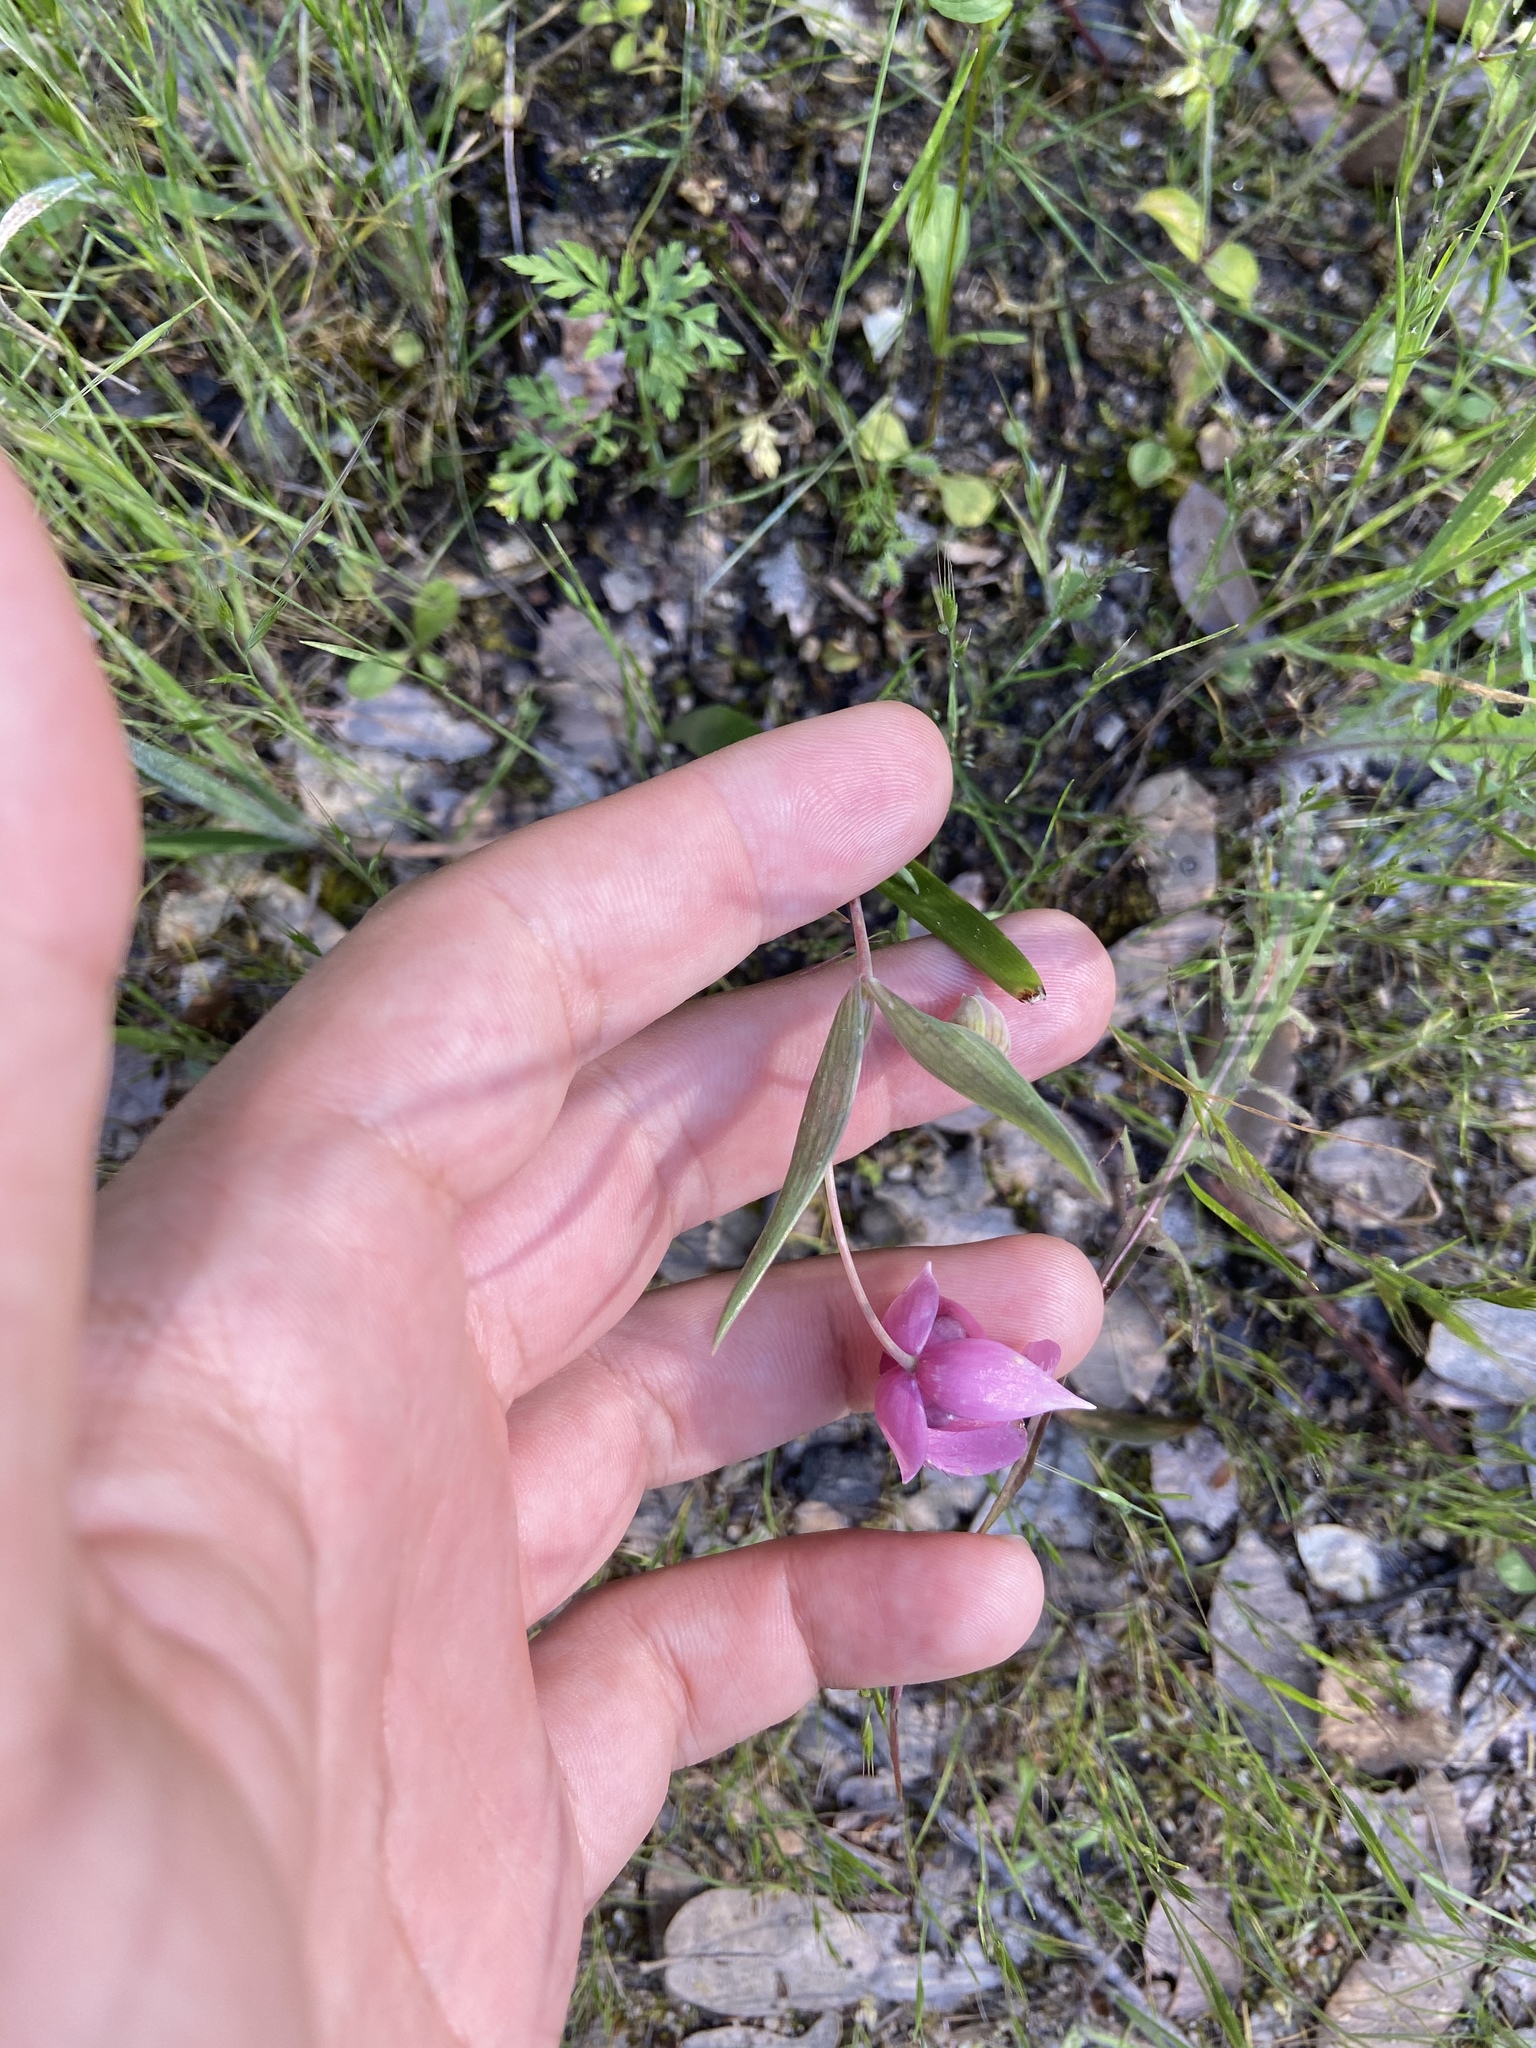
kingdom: Plantae
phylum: Tracheophyta
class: Liliopsida
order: Liliales
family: Liliaceae
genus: Calochortus
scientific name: Calochortus amoenus
